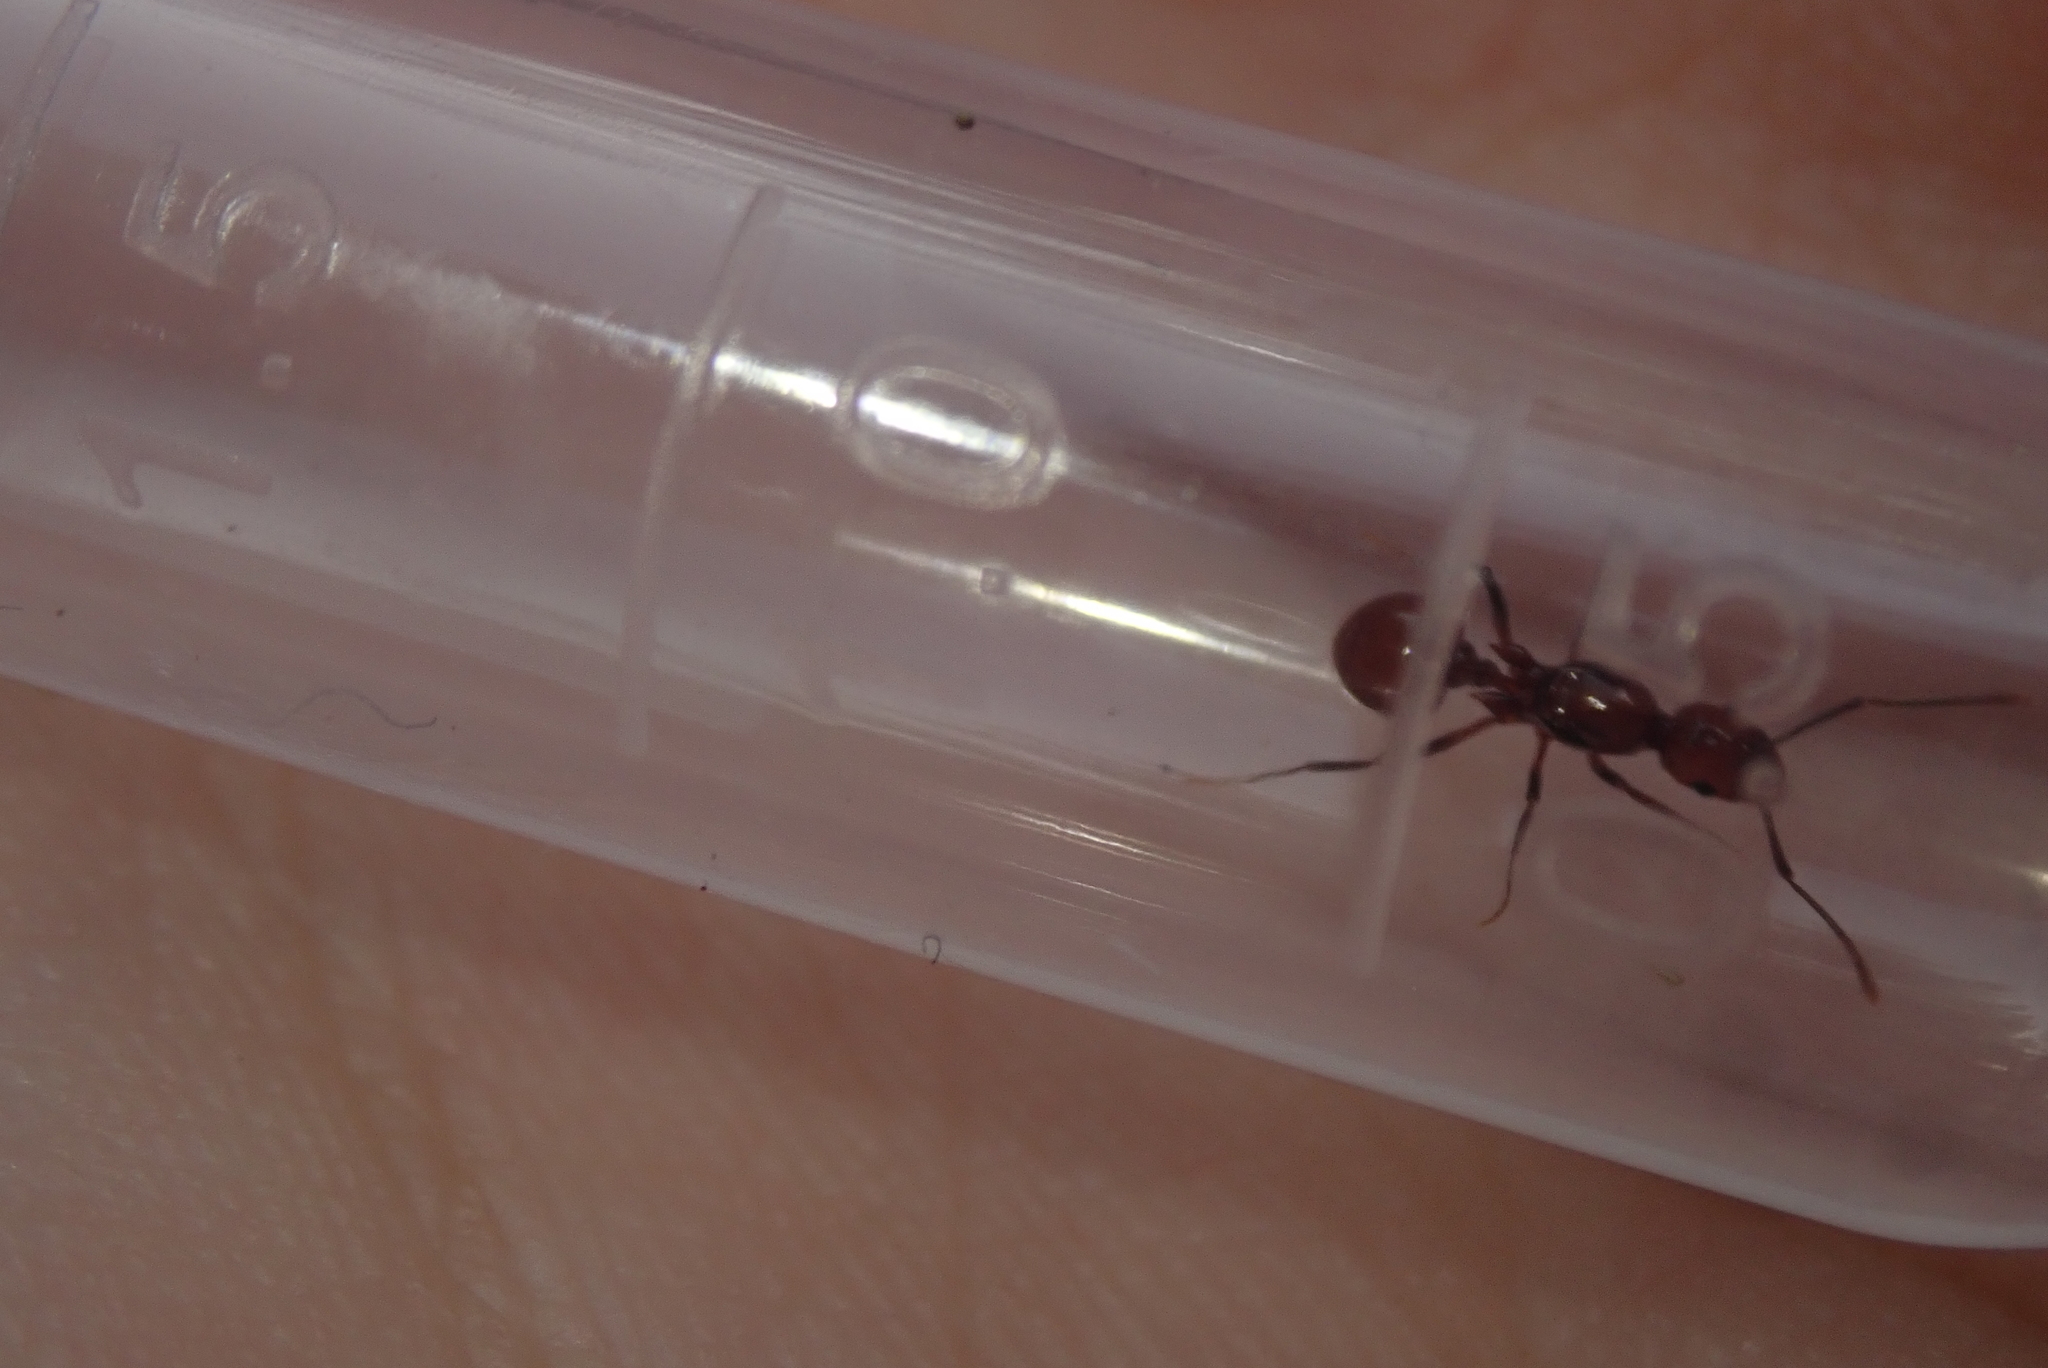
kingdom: Animalia
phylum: Arthropoda
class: Insecta
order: Hymenoptera
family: Formicidae
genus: Aphaenogaster
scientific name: Aphaenogaster tennesseensis
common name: Tennessee thread-waisted ant
